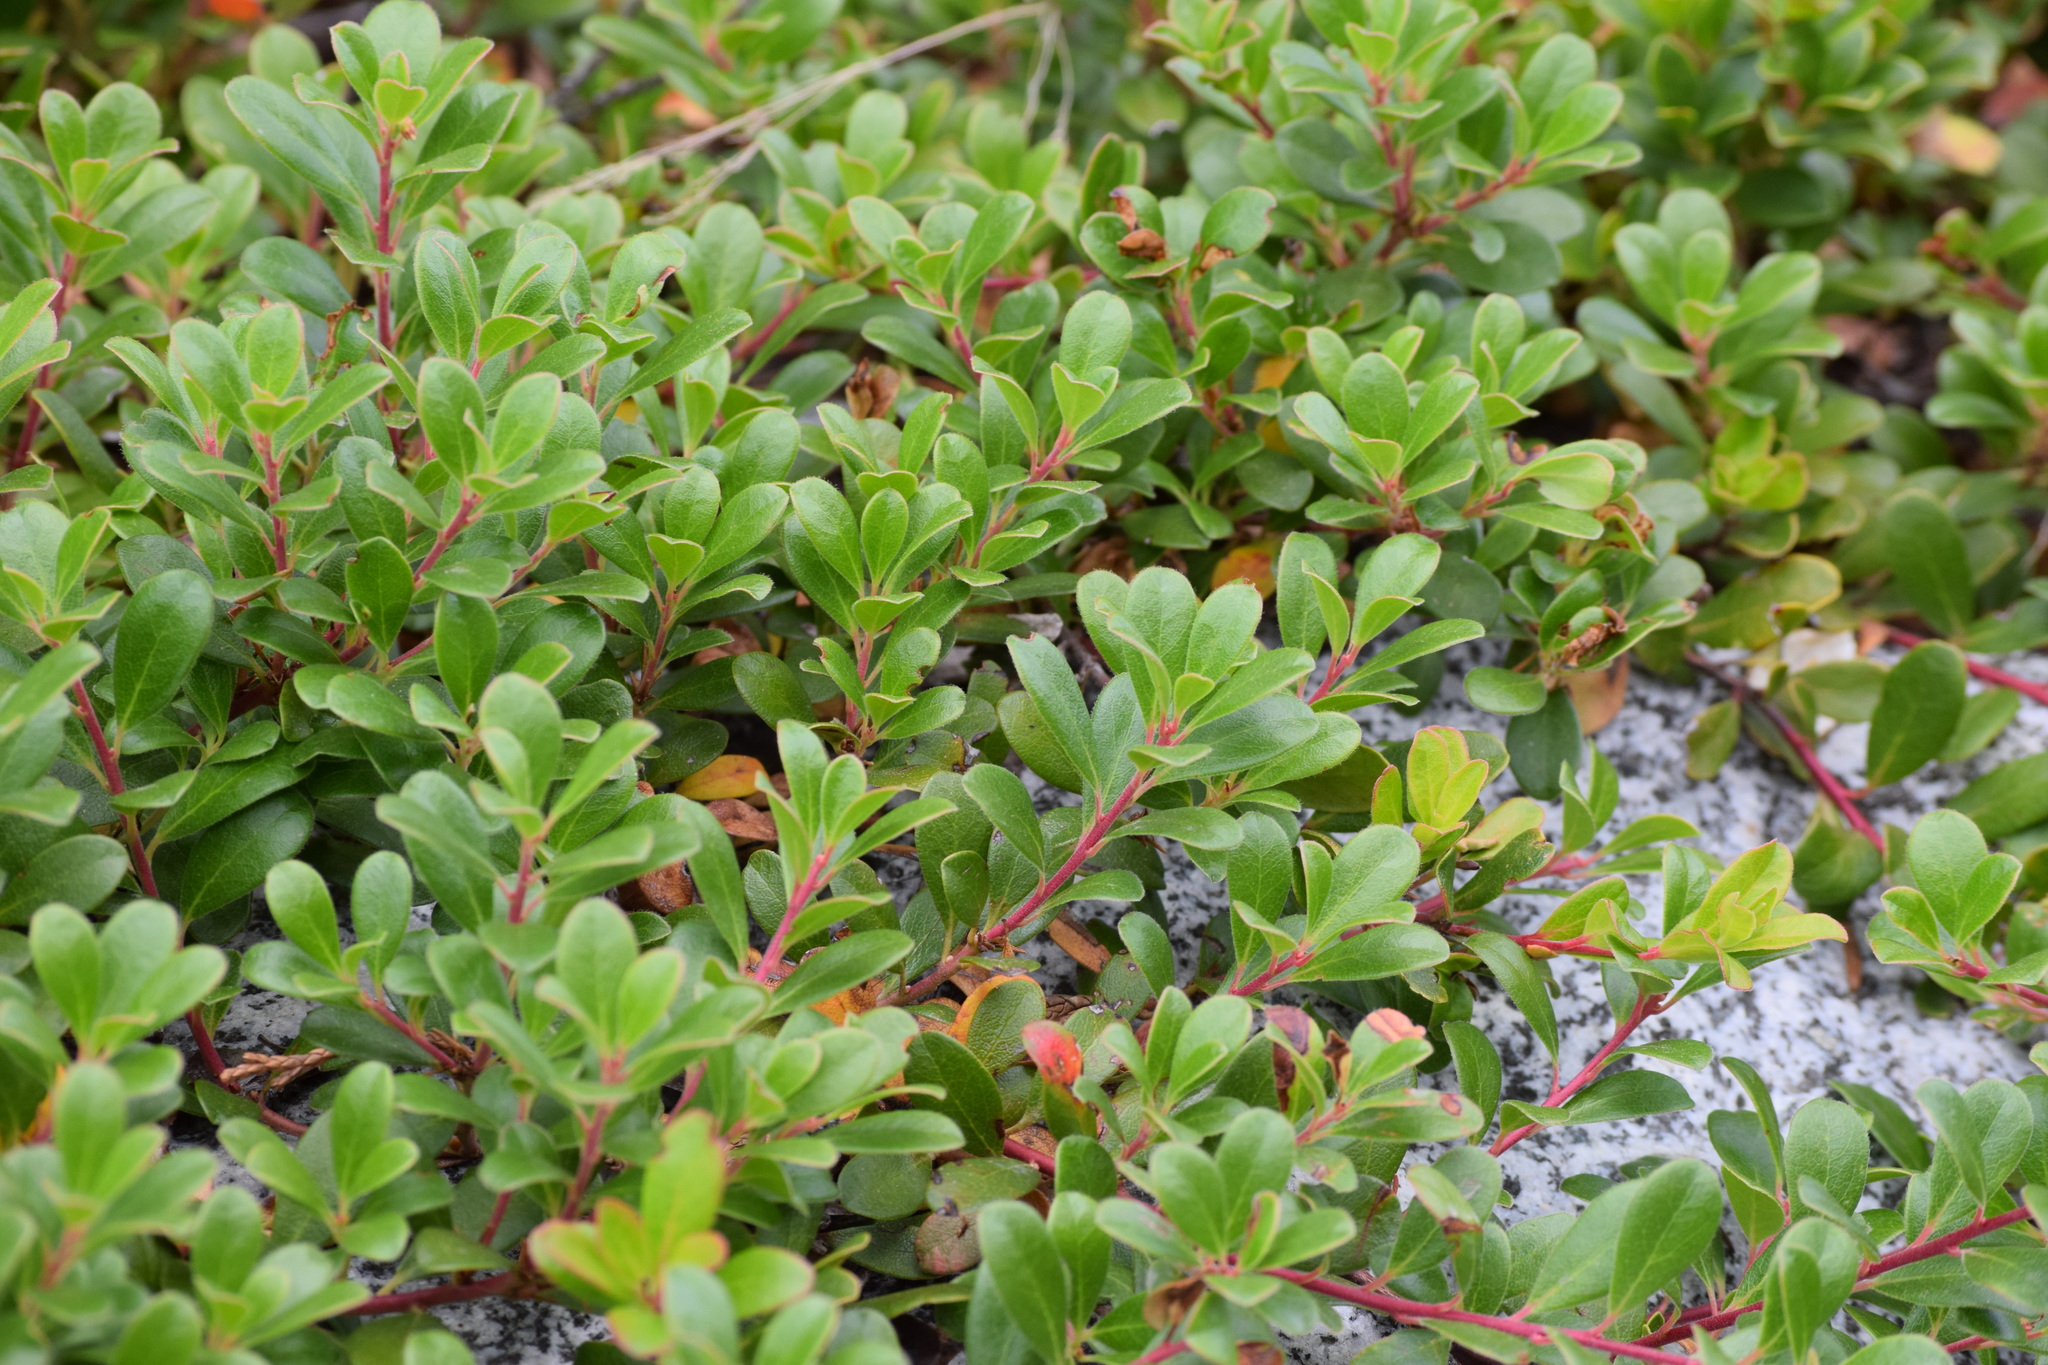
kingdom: Plantae
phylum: Tracheophyta
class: Magnoliopsida
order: Ericales
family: Ericaceae
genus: Arctostaphylos
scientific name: Arctostaphylos uva-ursi
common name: Bearberry
